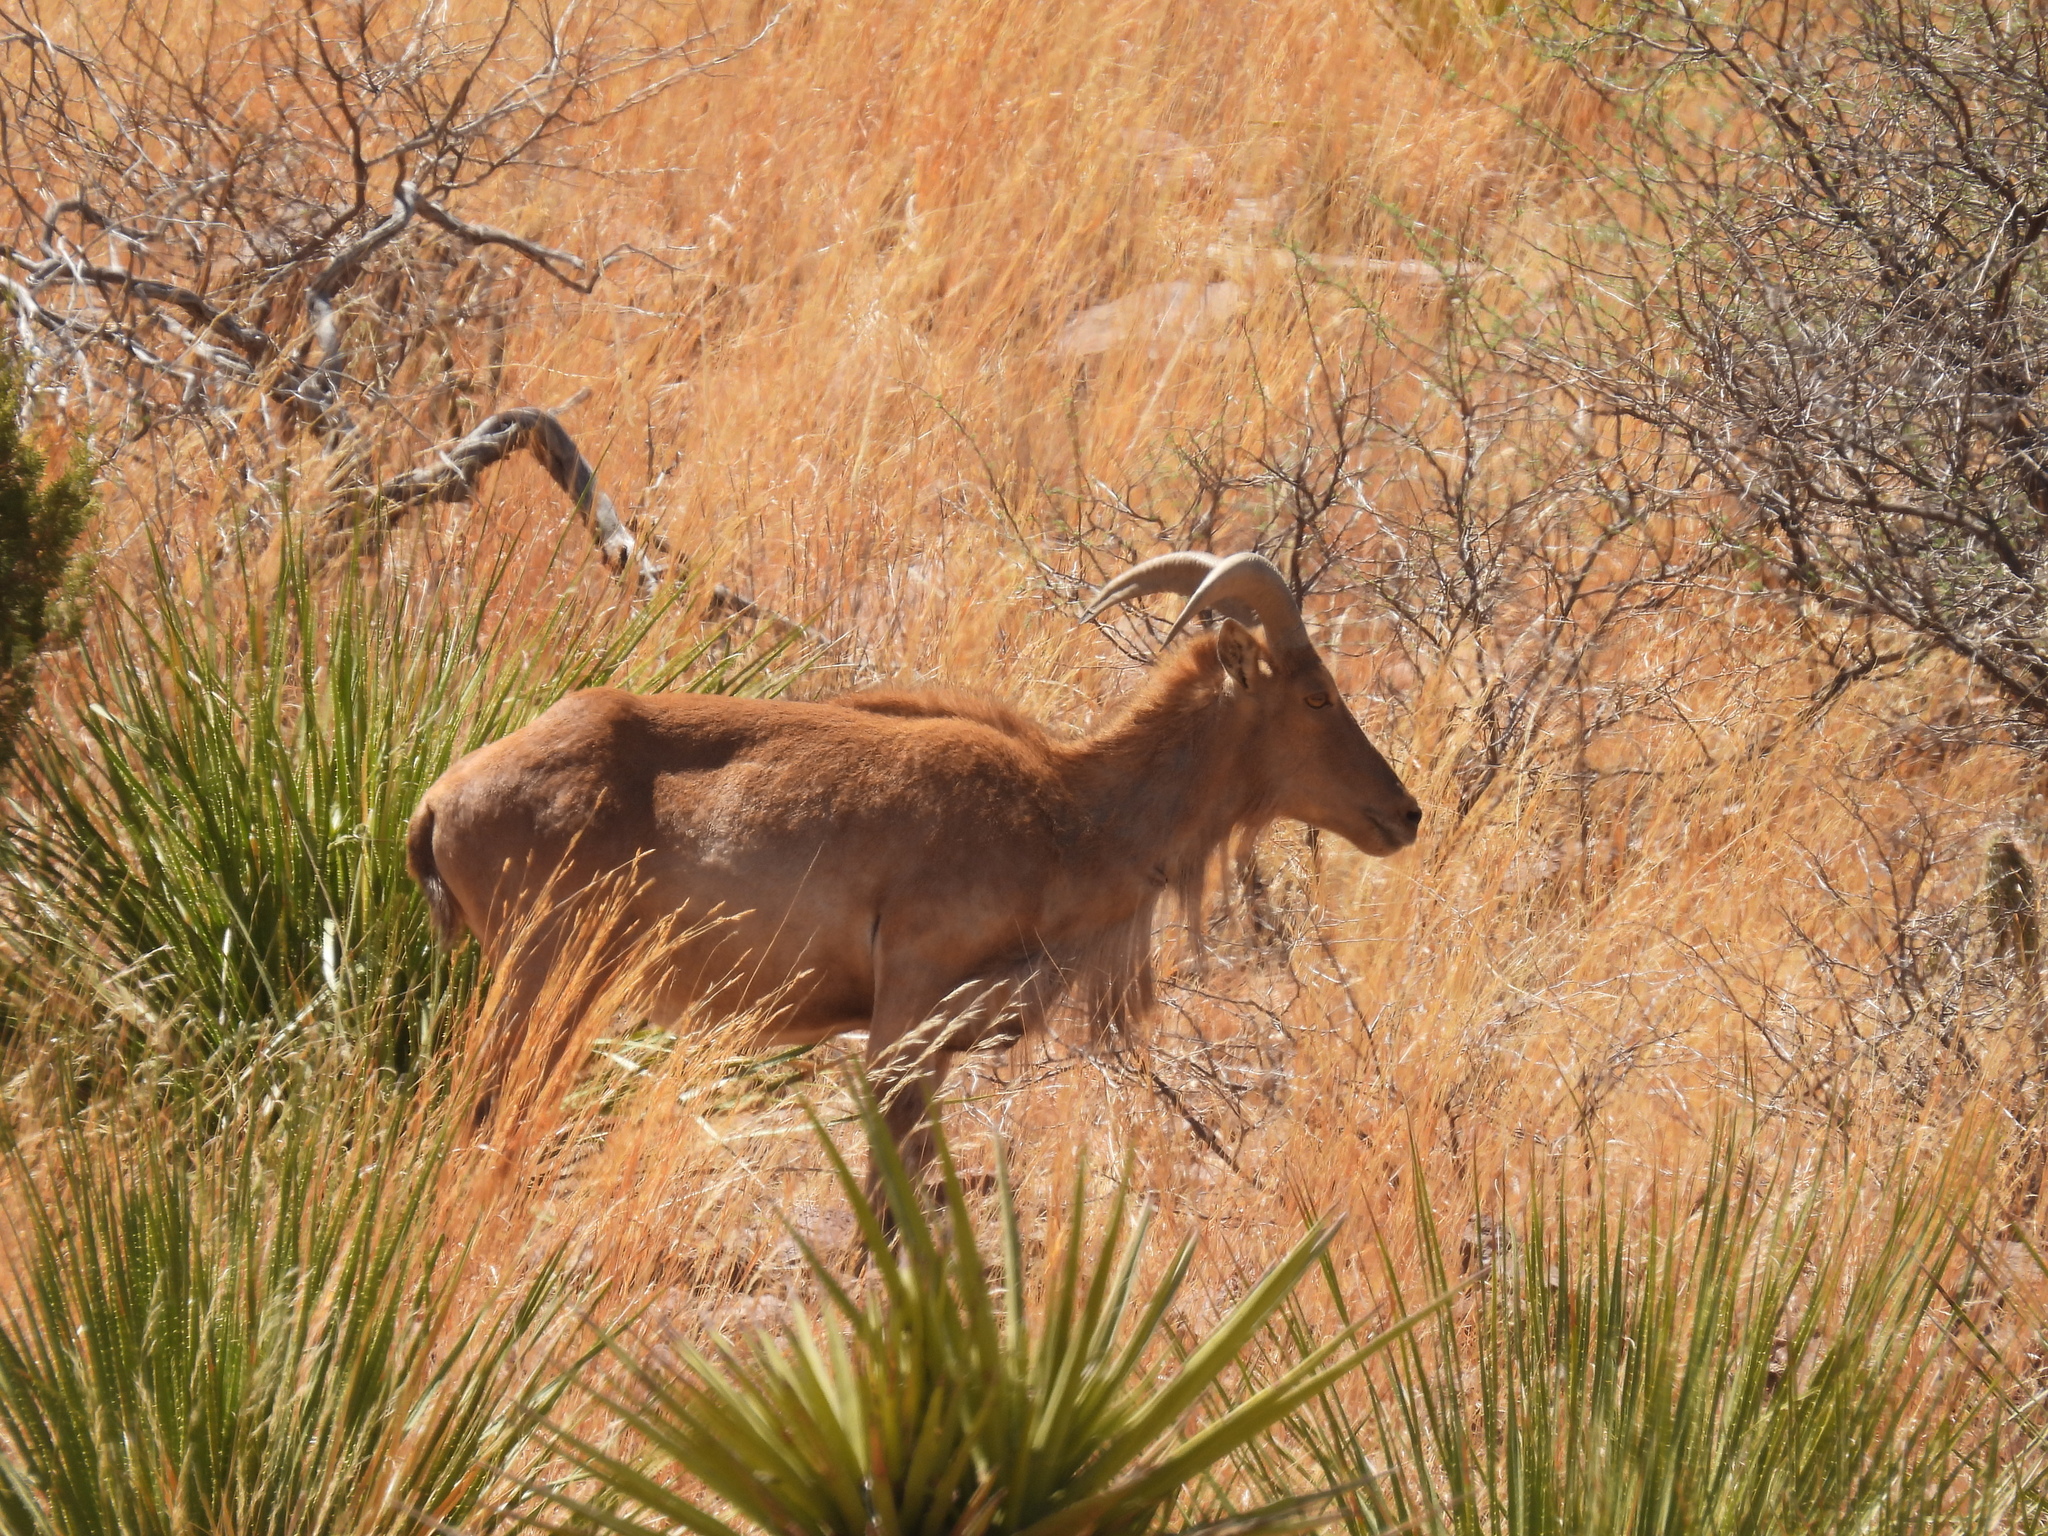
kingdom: Animalia
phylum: Chordata
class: Mammalia
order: Artiodactyla
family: Bovidae
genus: Ammotragus
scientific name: Ammotragus lervia
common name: Barbary sheep
